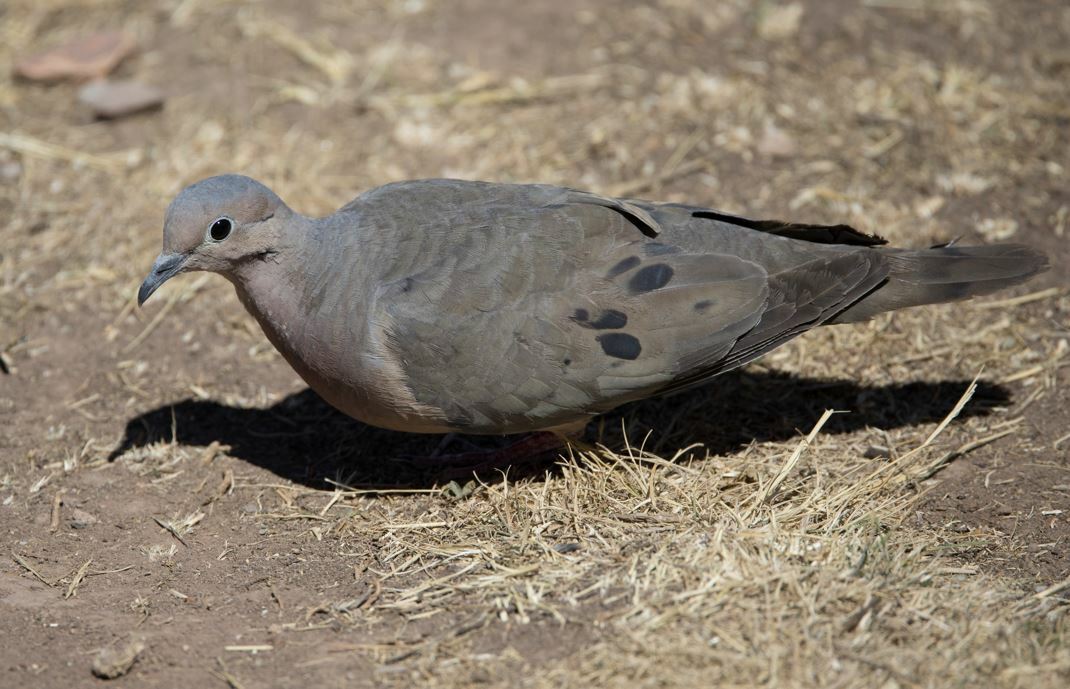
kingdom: Animalia
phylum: Chordata
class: Aves
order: Columbiformes
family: Columbidae
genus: Zenaida
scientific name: Zenaida auriculata
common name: Eared dove
